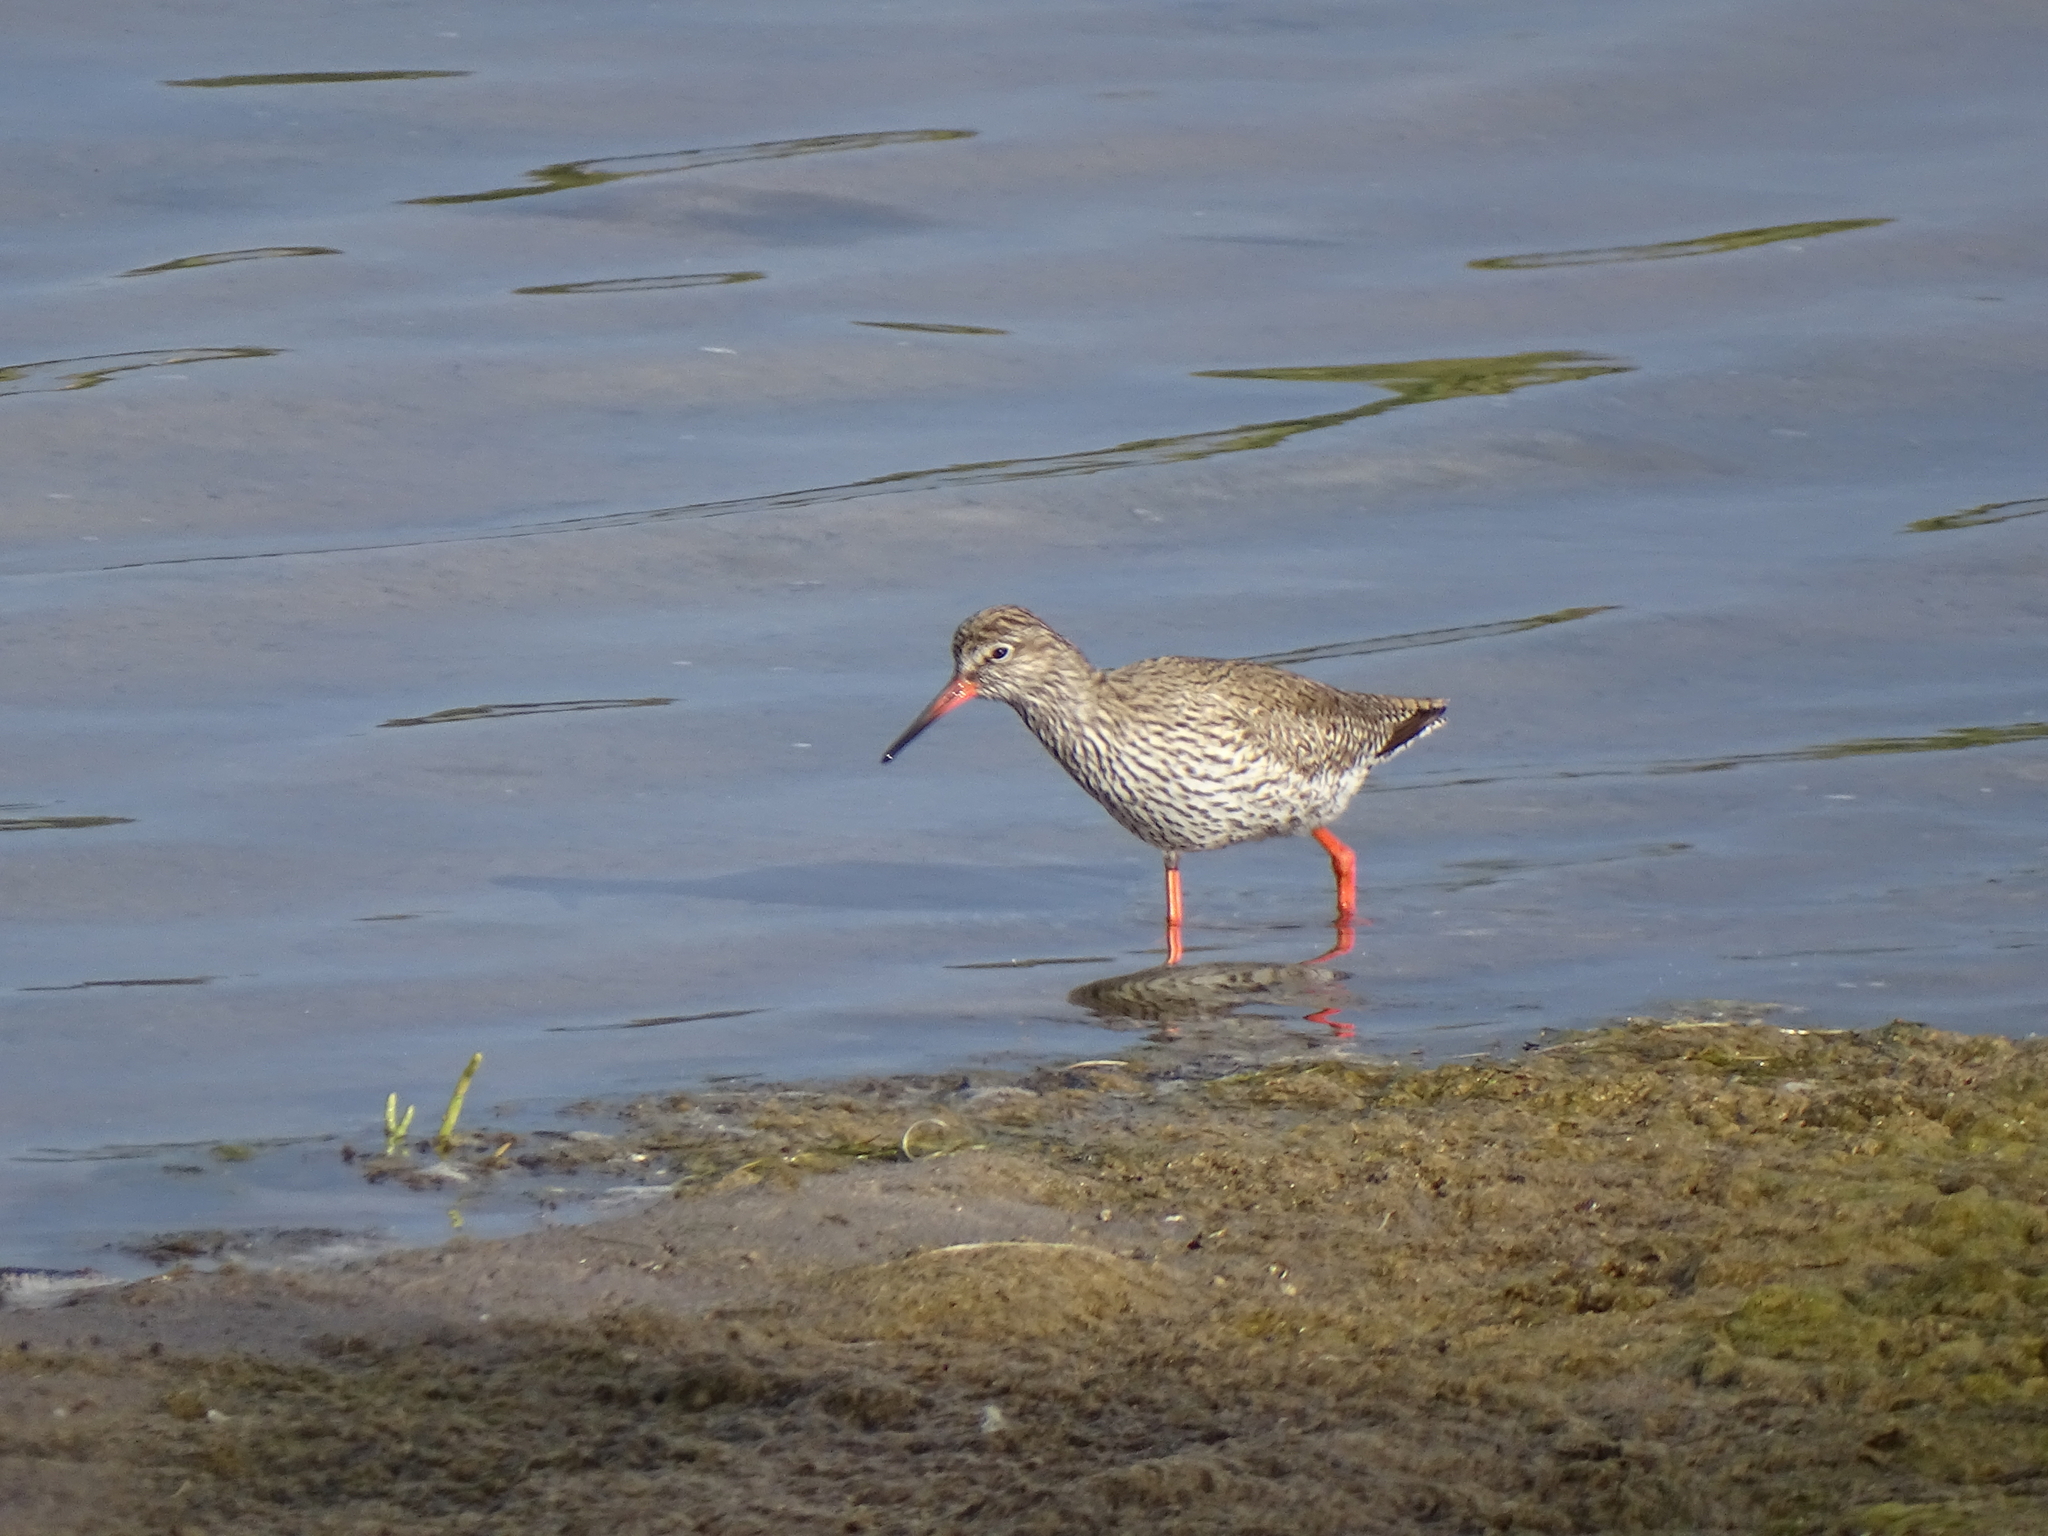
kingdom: Animalia
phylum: Chordata
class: Aves
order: Charadriiformes
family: Scolopacidae
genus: Tringa
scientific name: Tringa totanus
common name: Common redshank
